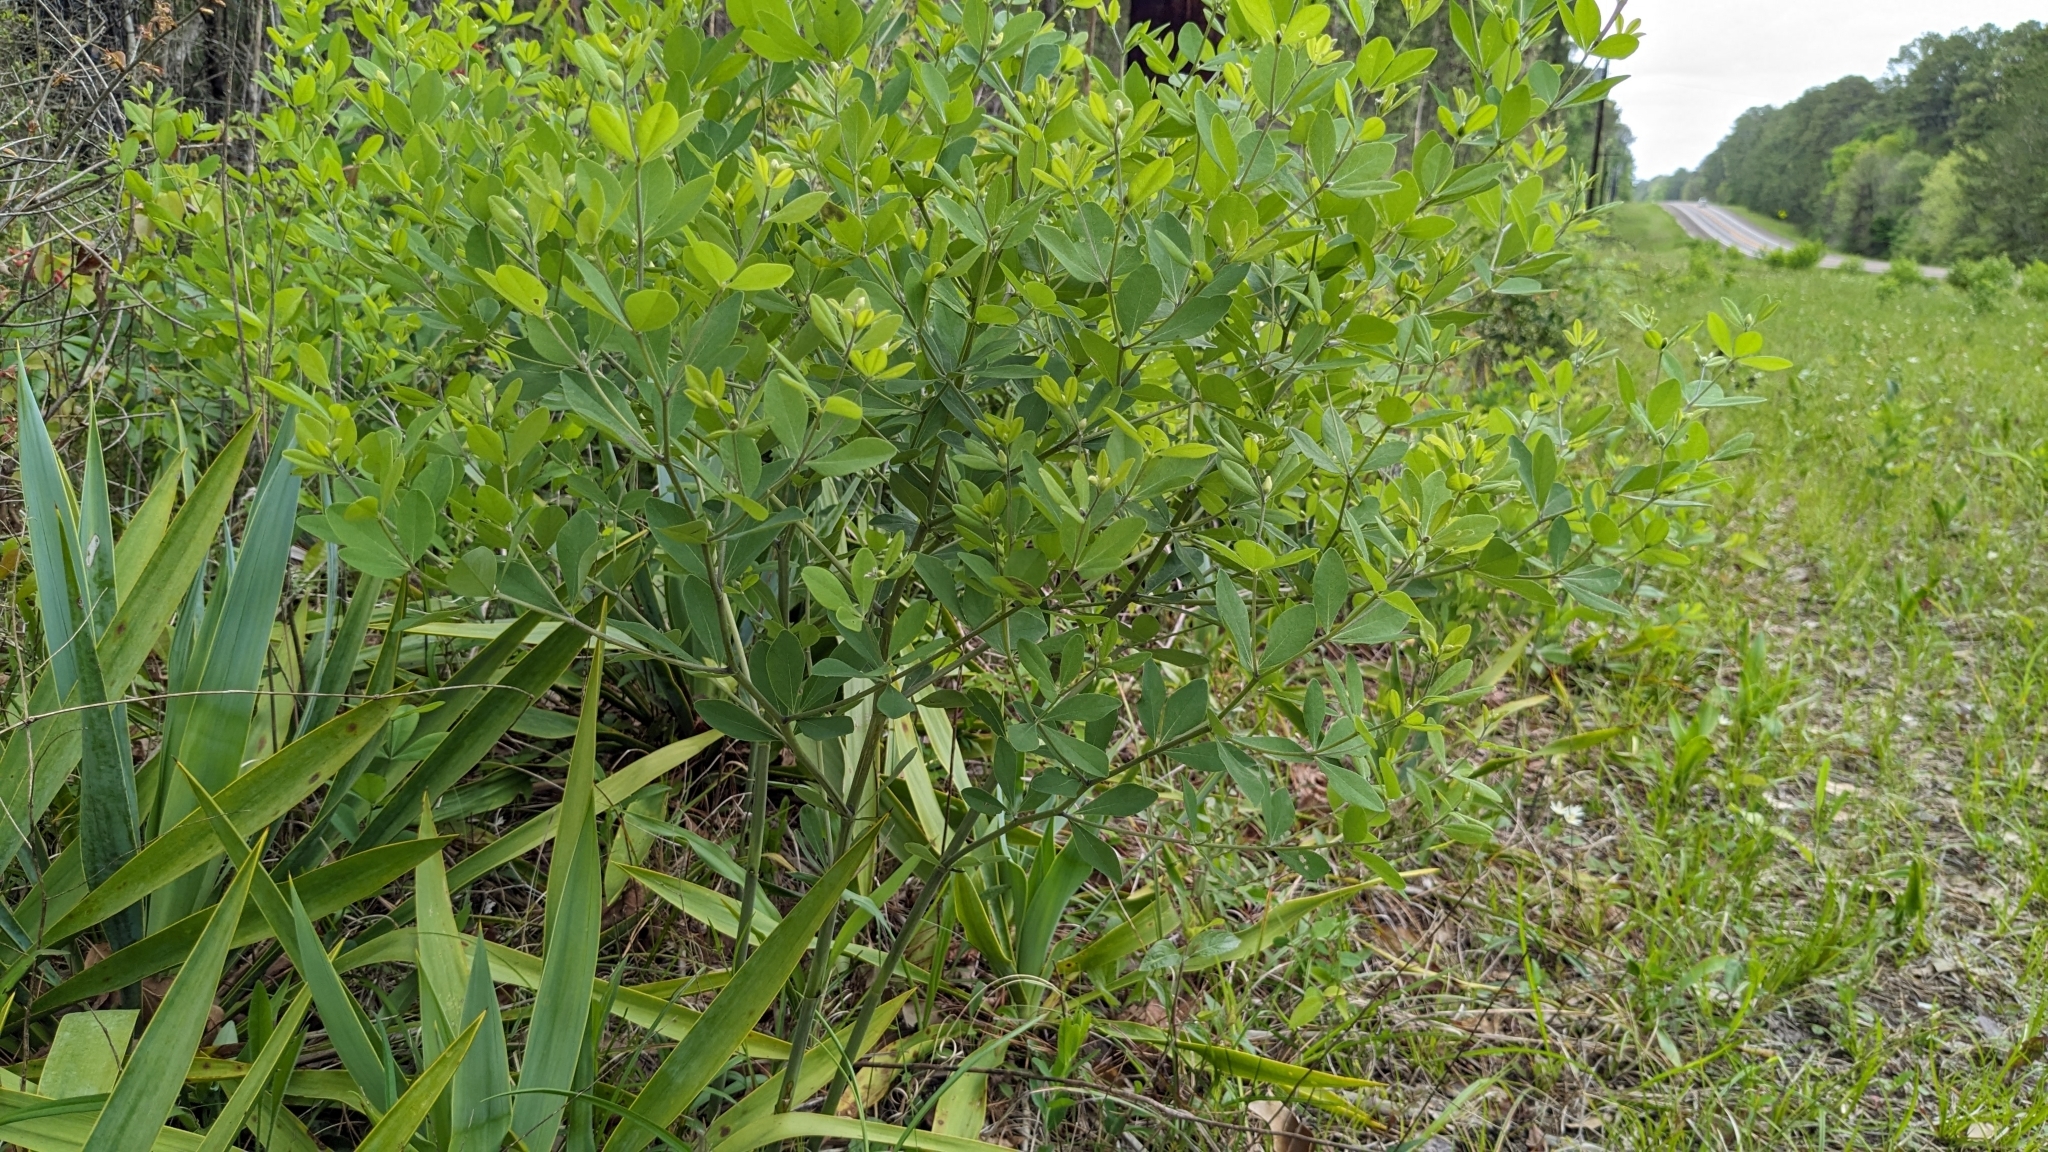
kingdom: Plantae
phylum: Tracheophyta
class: Magnoliopsida
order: Fabales
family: Fabaceae
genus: Baptisia
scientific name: Baptisia nuttalliana
